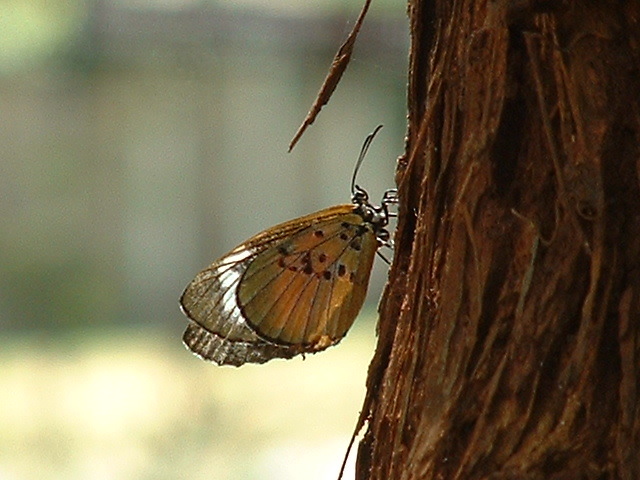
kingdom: Animalia
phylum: Arthropoda
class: Insecta
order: Lepidoptera
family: Lycaenidae
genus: Mimacraea
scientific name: Mimacraea marshalli
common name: Marshall’s acraea mimic
